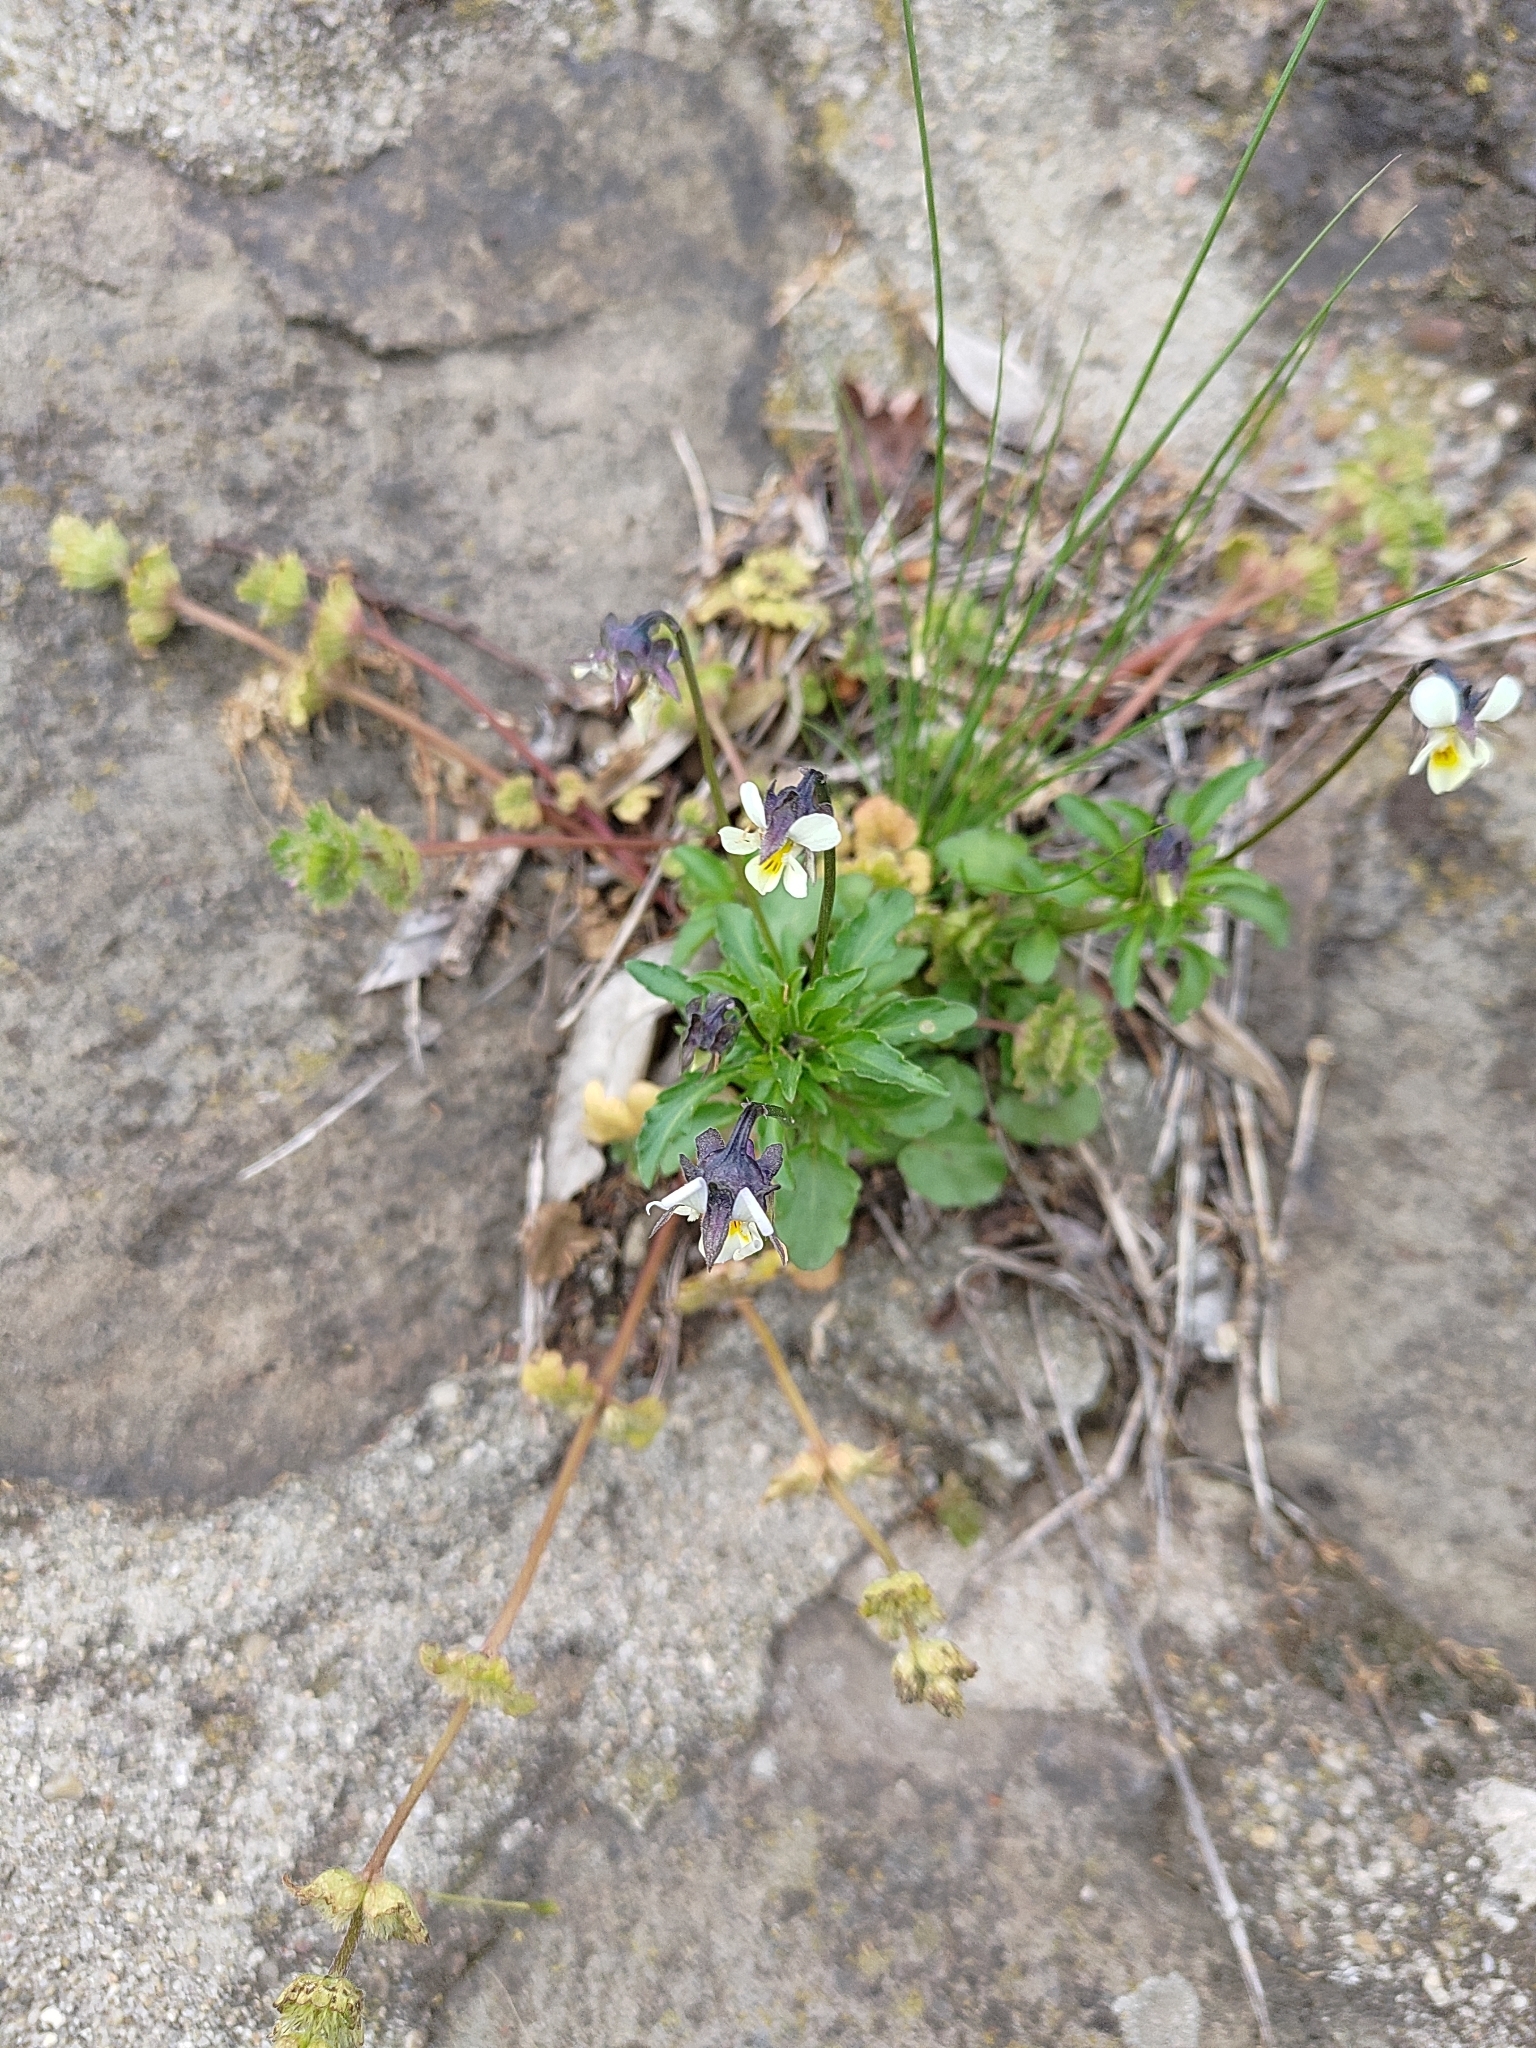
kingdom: Plantae
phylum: Tracheophyta
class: Magnoliopsida
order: Malpighiales
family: Violaceae
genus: Viola
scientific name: Viola arvensis
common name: Field pansy
